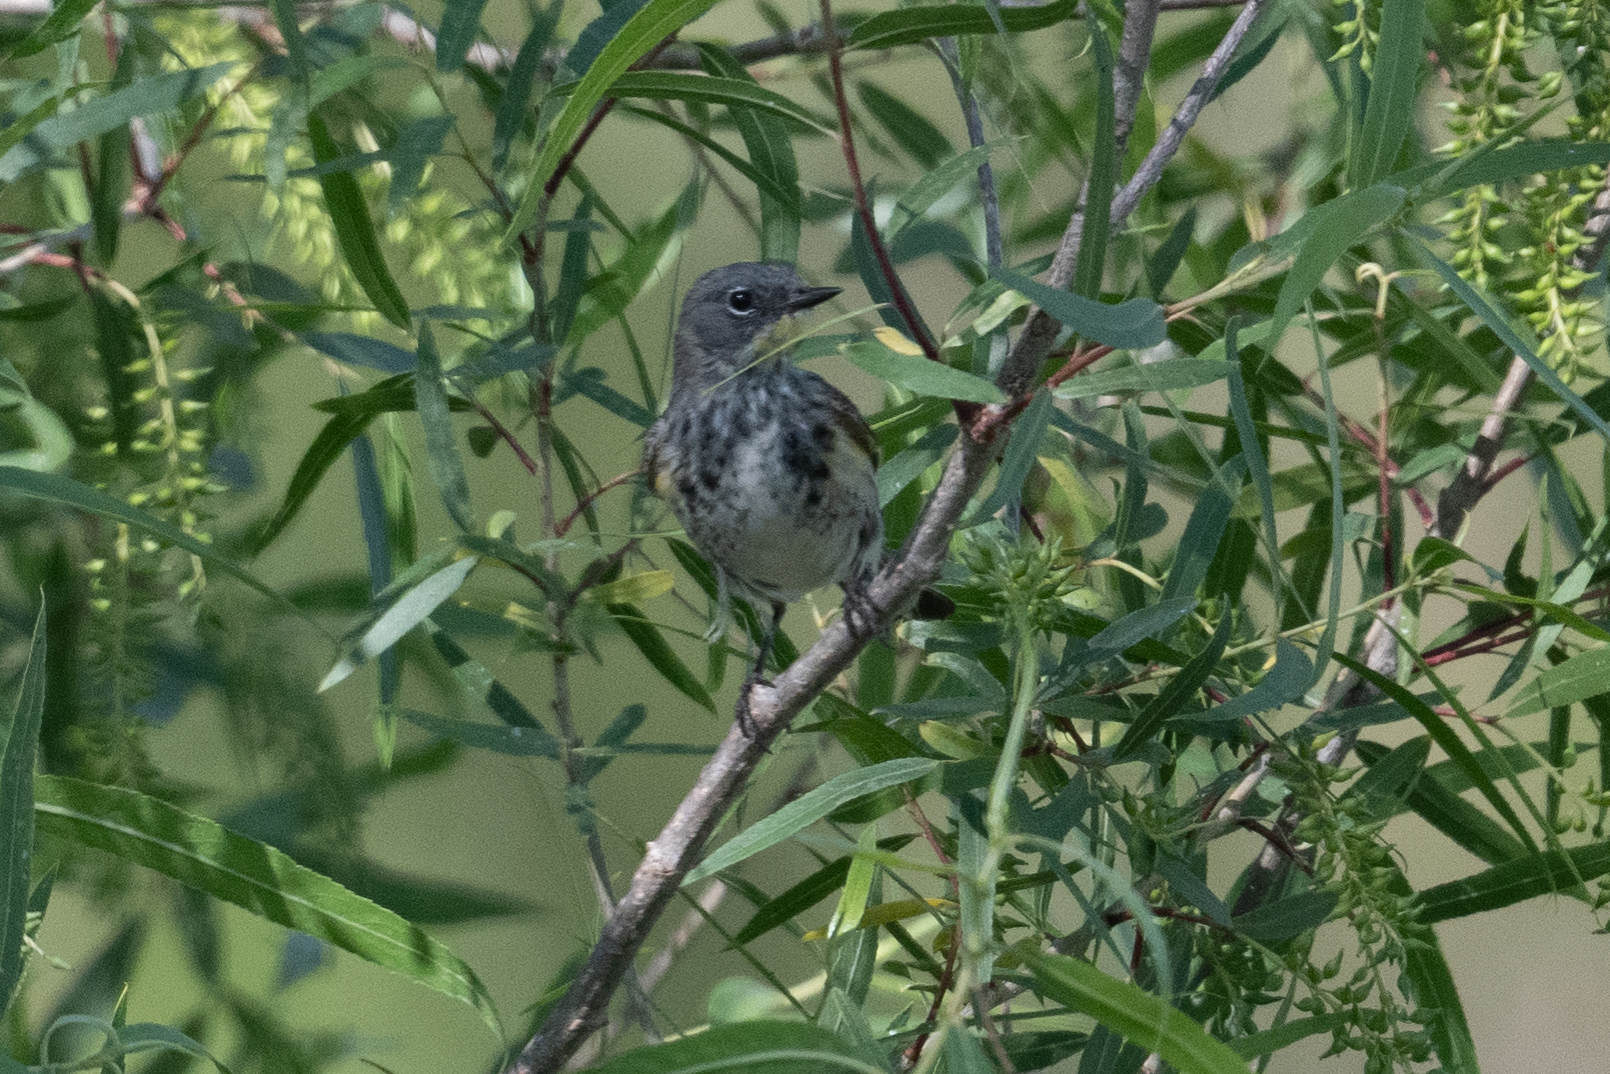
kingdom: Animalia
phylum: Chordata
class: Aves
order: Passeriformes
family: Parulidae
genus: Setophaga
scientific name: Setophaga coronata
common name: Myrtle warbler
